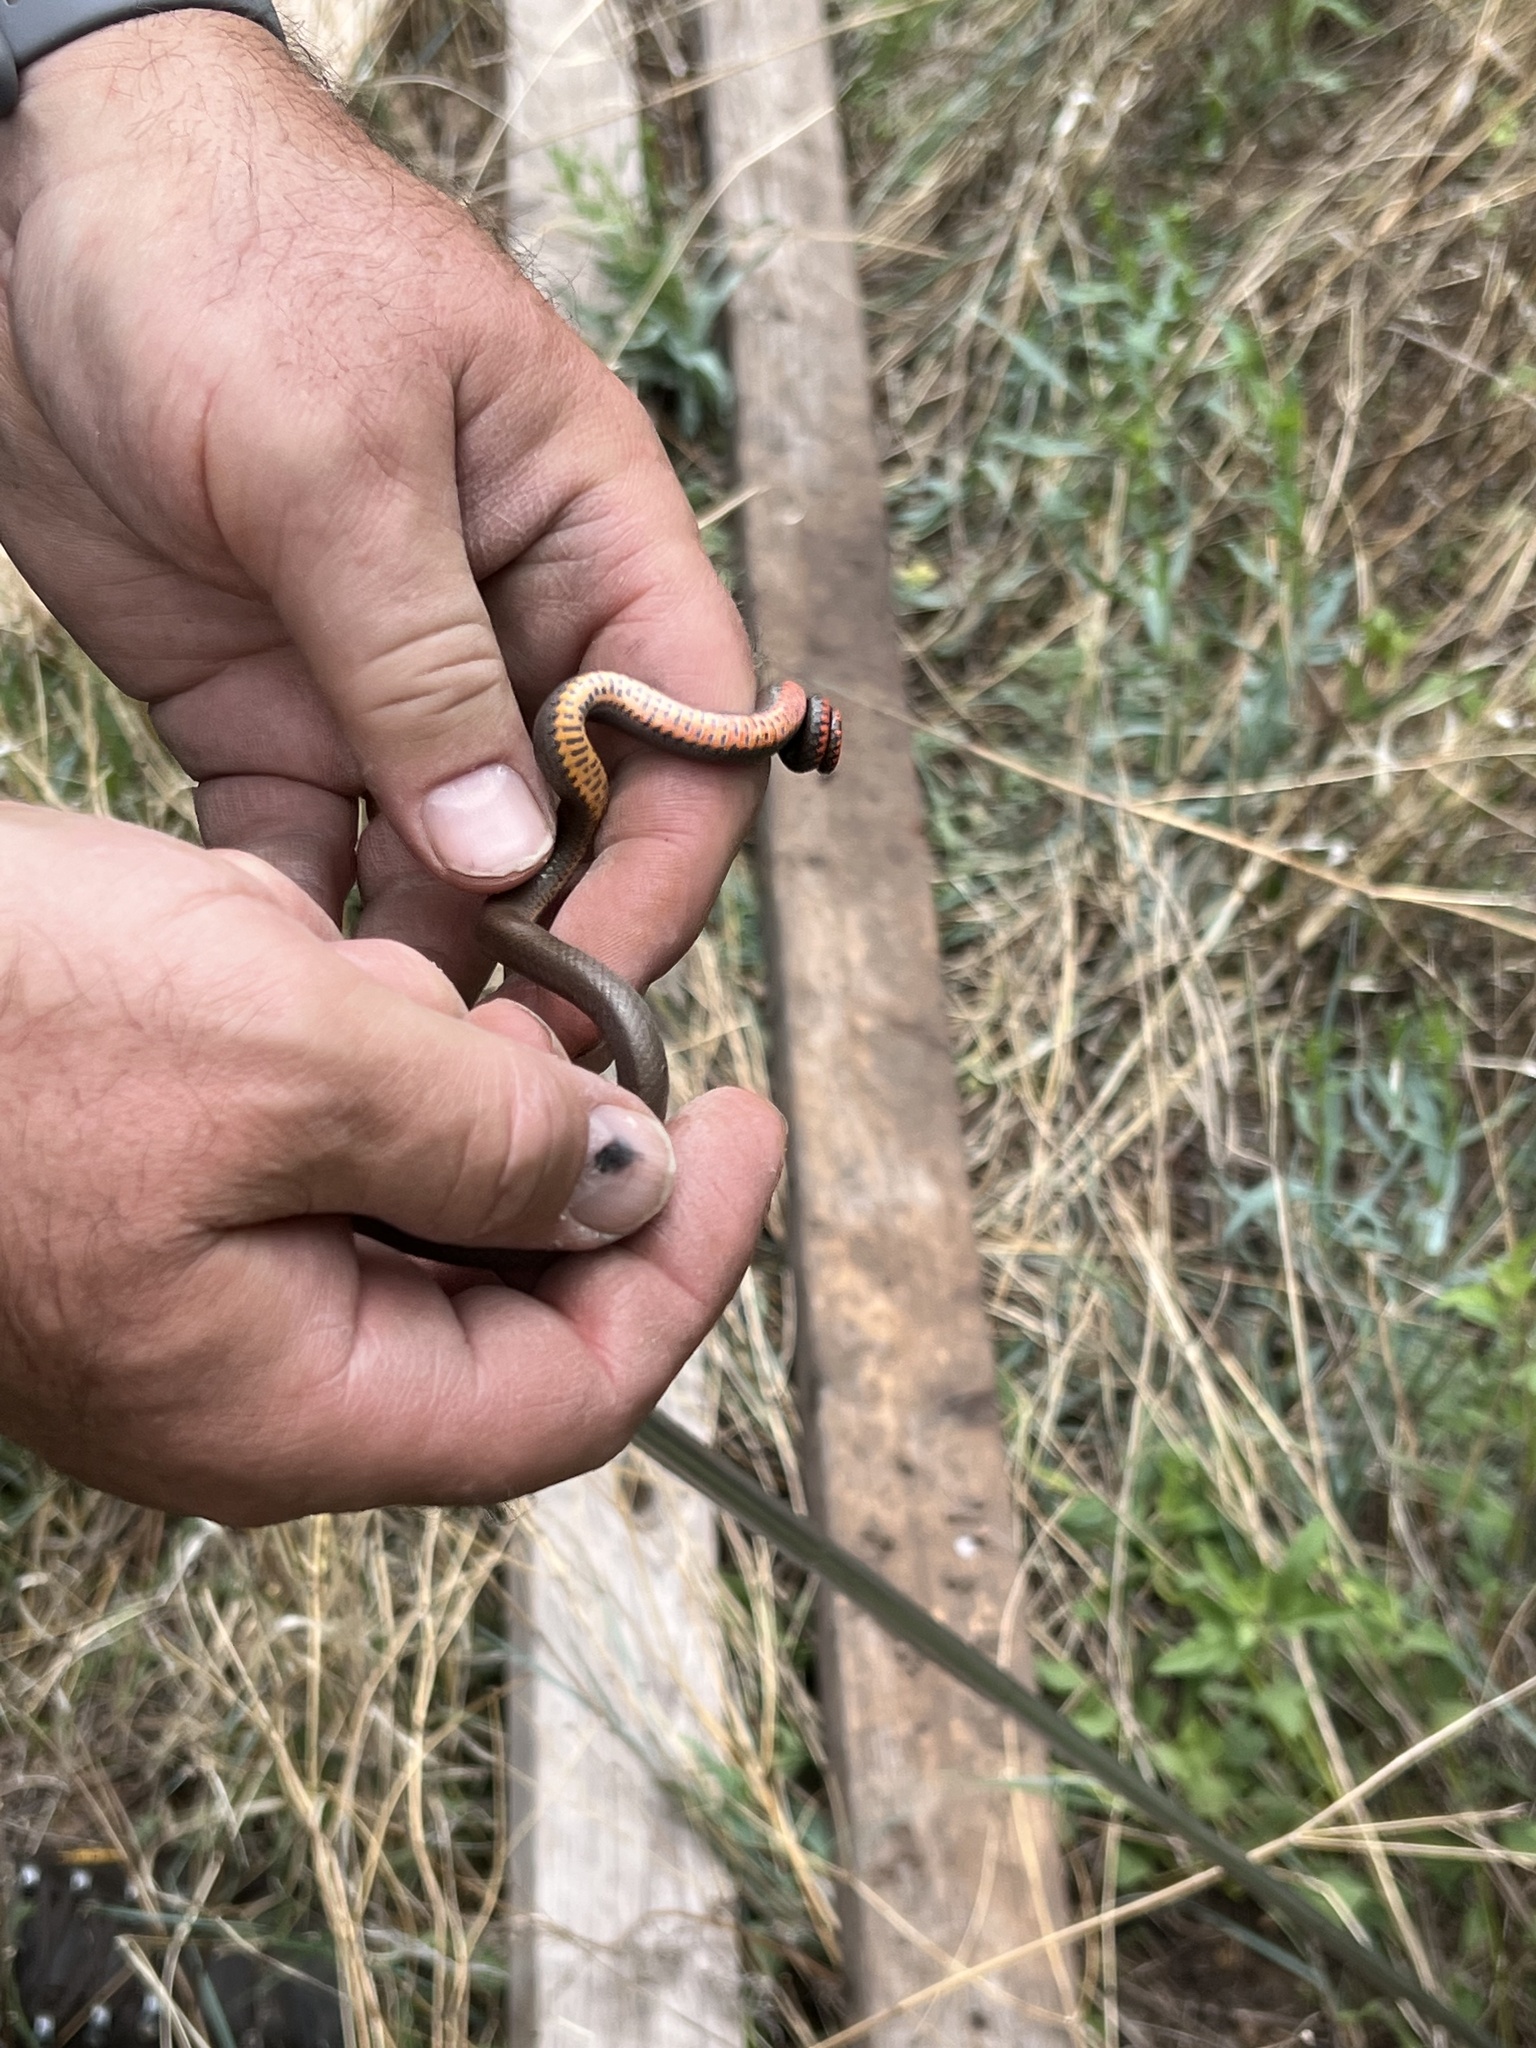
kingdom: Animalia
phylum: Chordata
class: Squamata
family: Colubridae
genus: Diadophis
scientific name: Diadophis punctatus
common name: Ringneck snake
